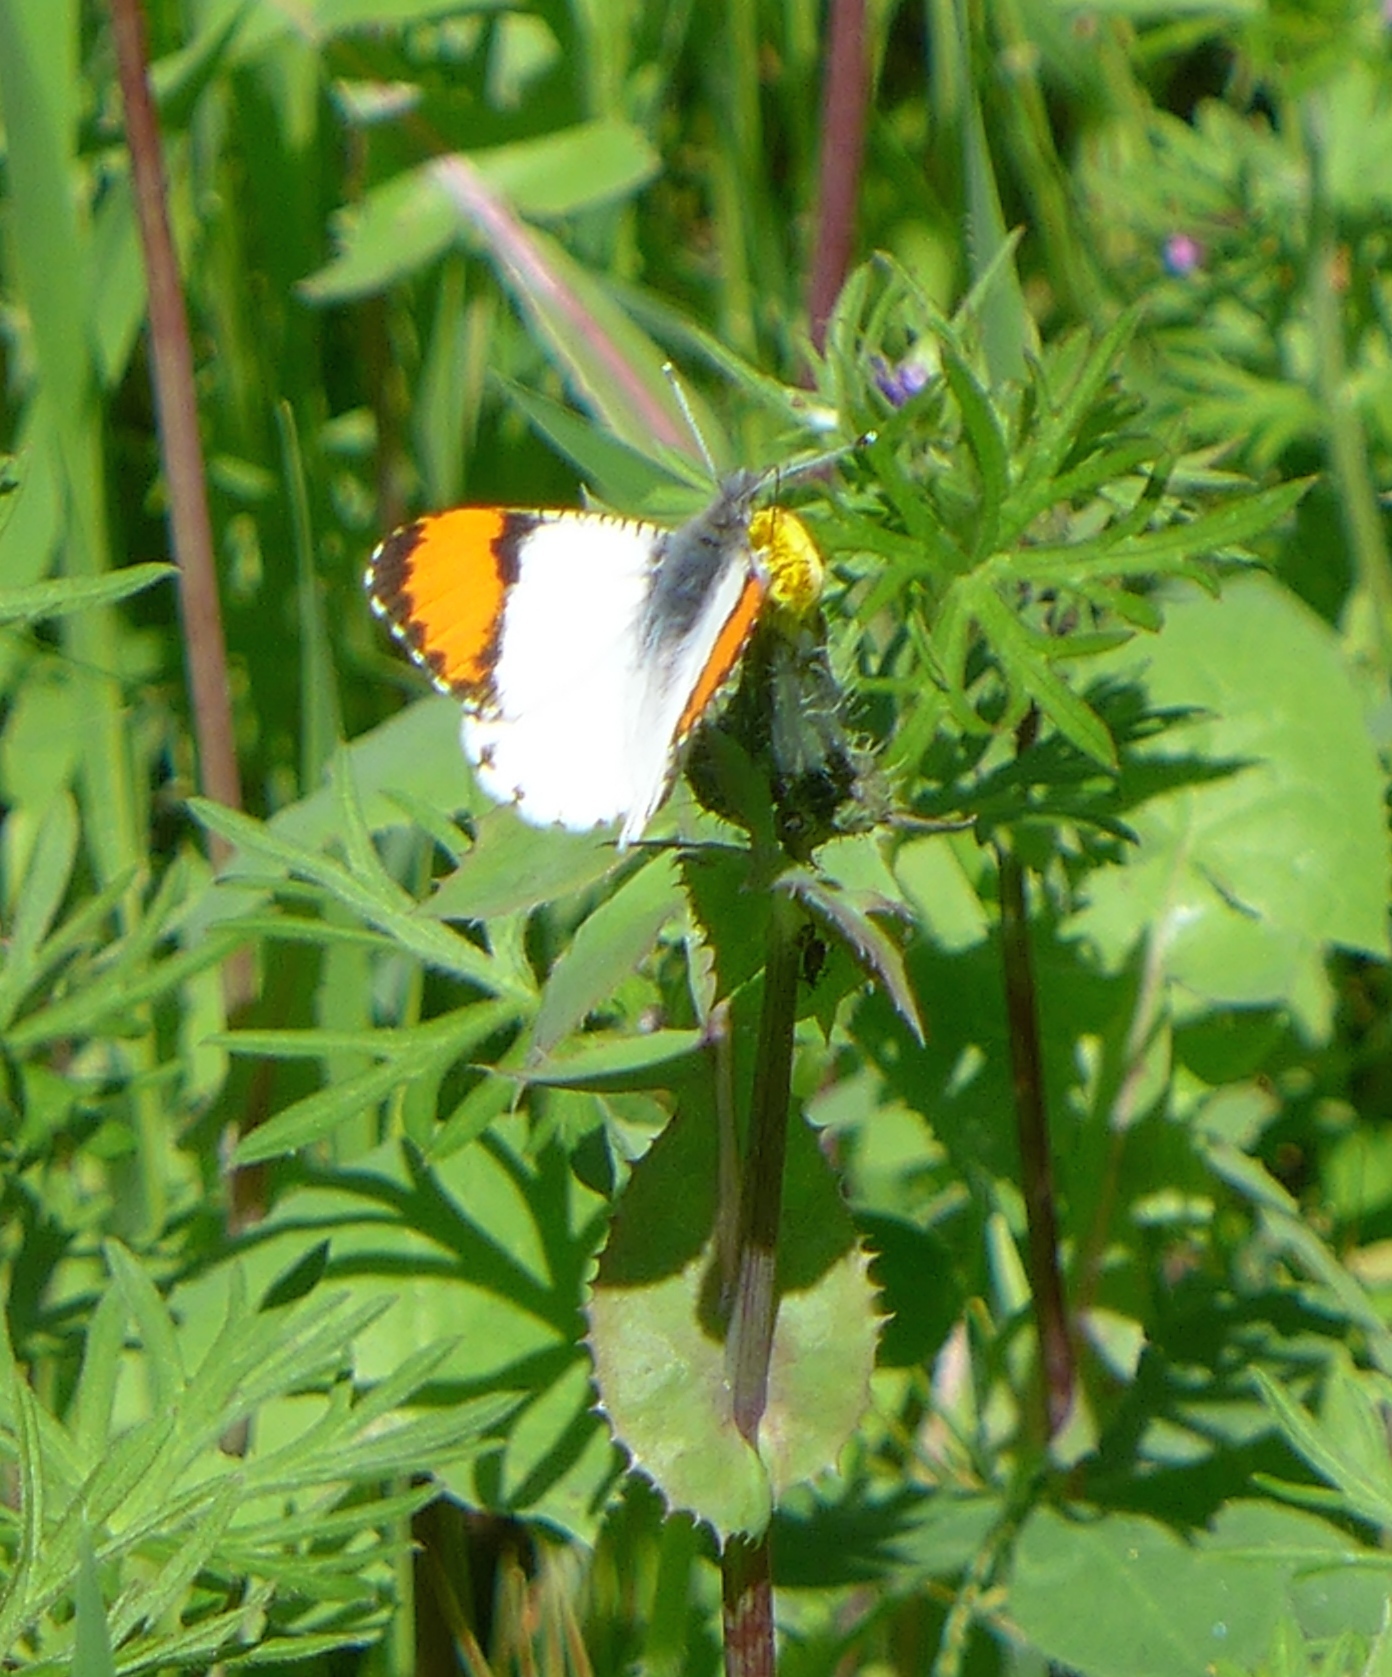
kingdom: Animalia
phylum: Arthropoda
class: Insecta
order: Lepidoptera
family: Pieridae
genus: Anthocharis
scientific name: Anthocharis sara
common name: Sara's orangetip
